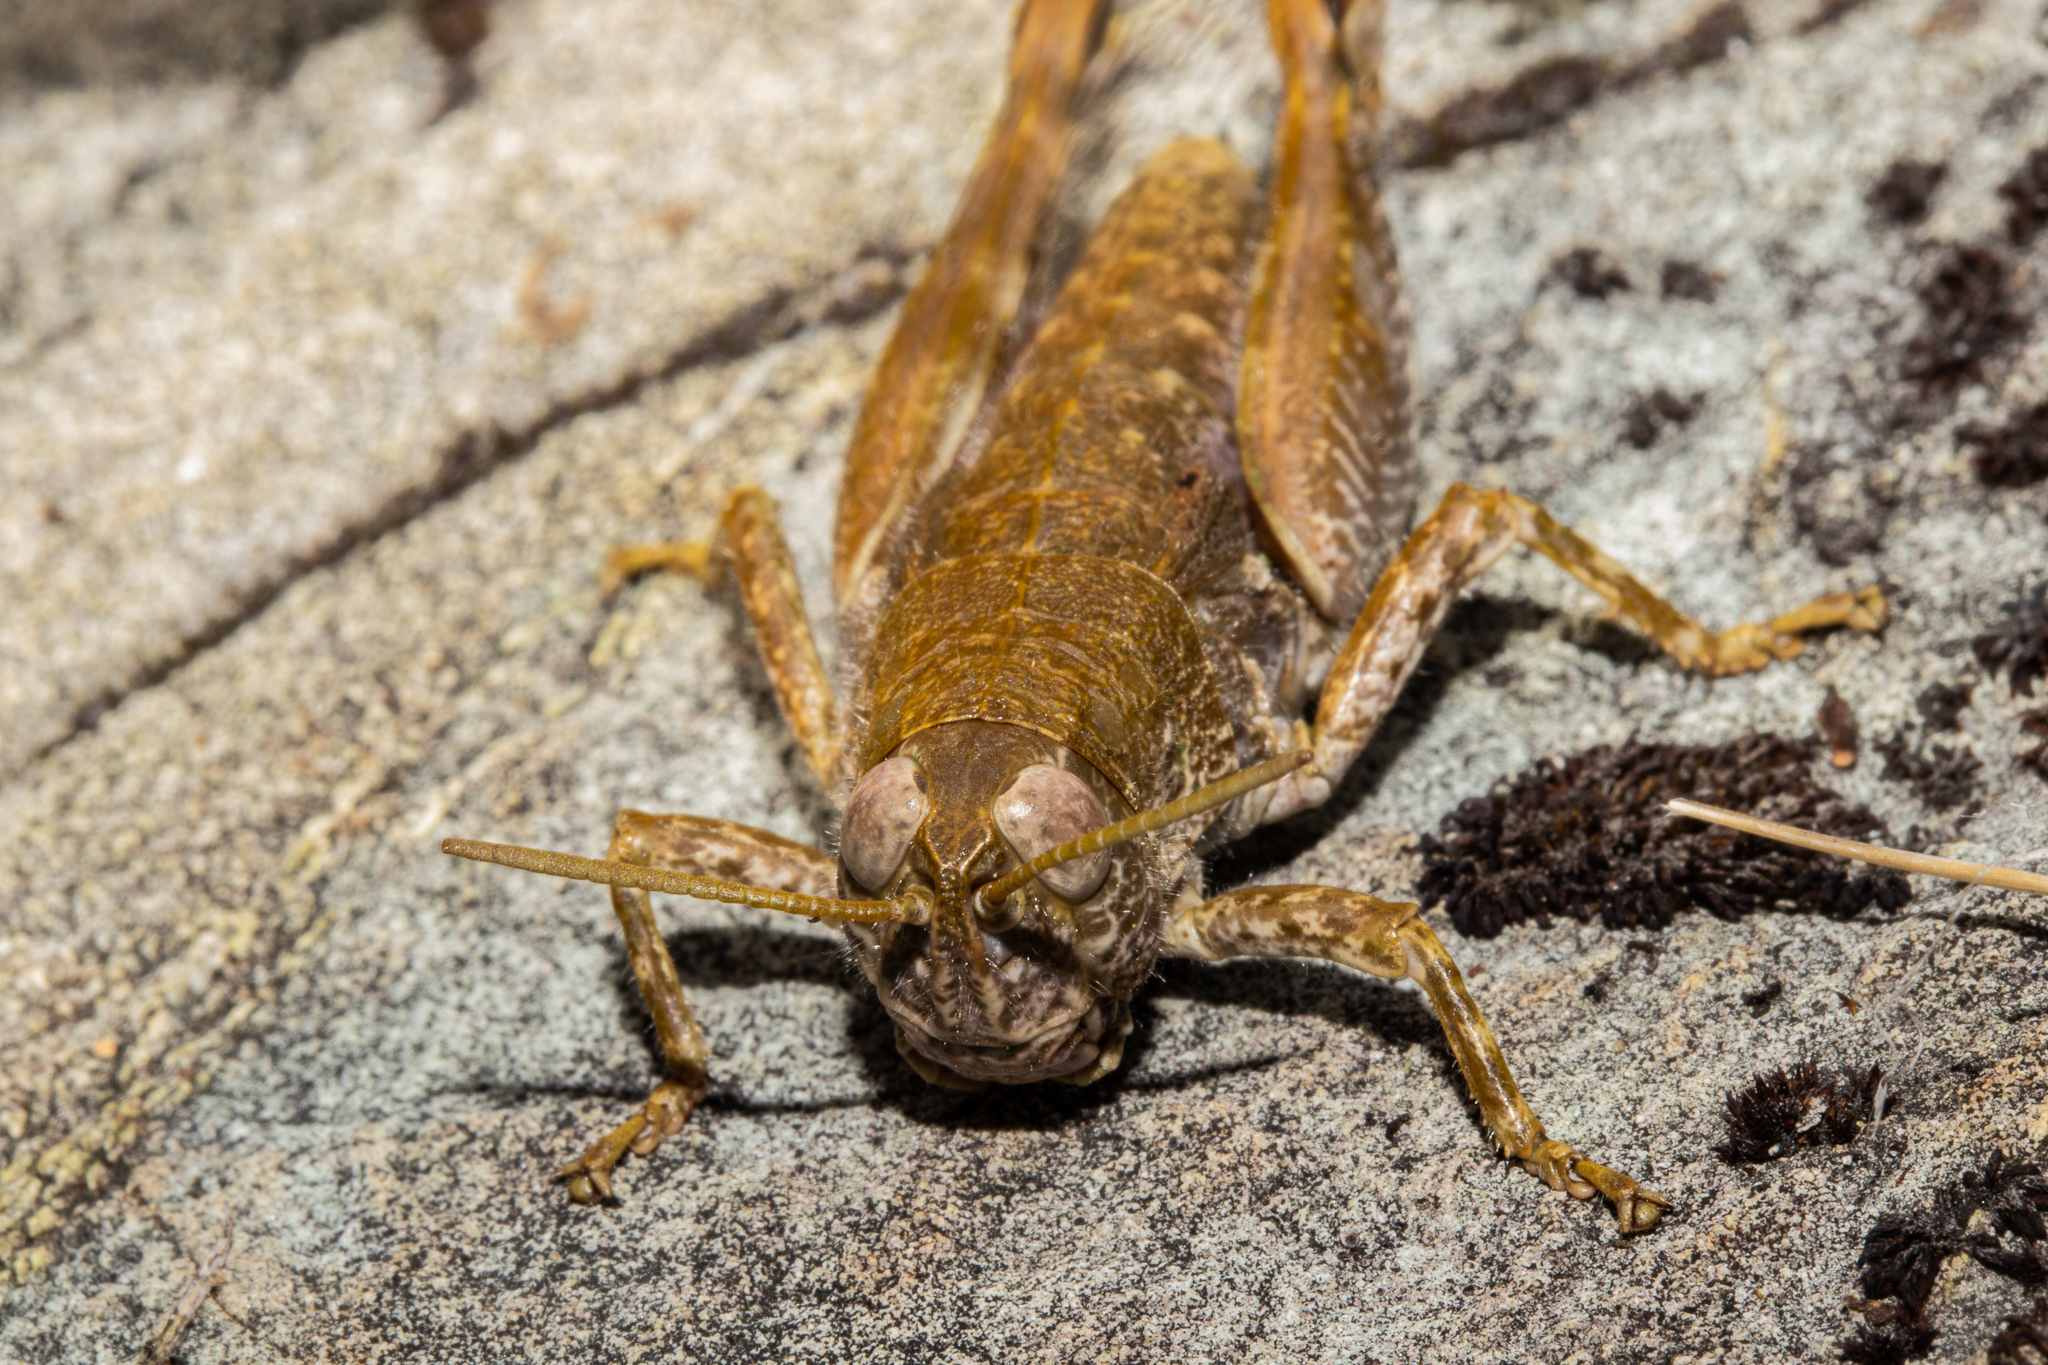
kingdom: Animalia
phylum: Arthropoda
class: Insecta
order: Orthoptera
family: Acrididae
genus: Sigaus
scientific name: Sigaus
